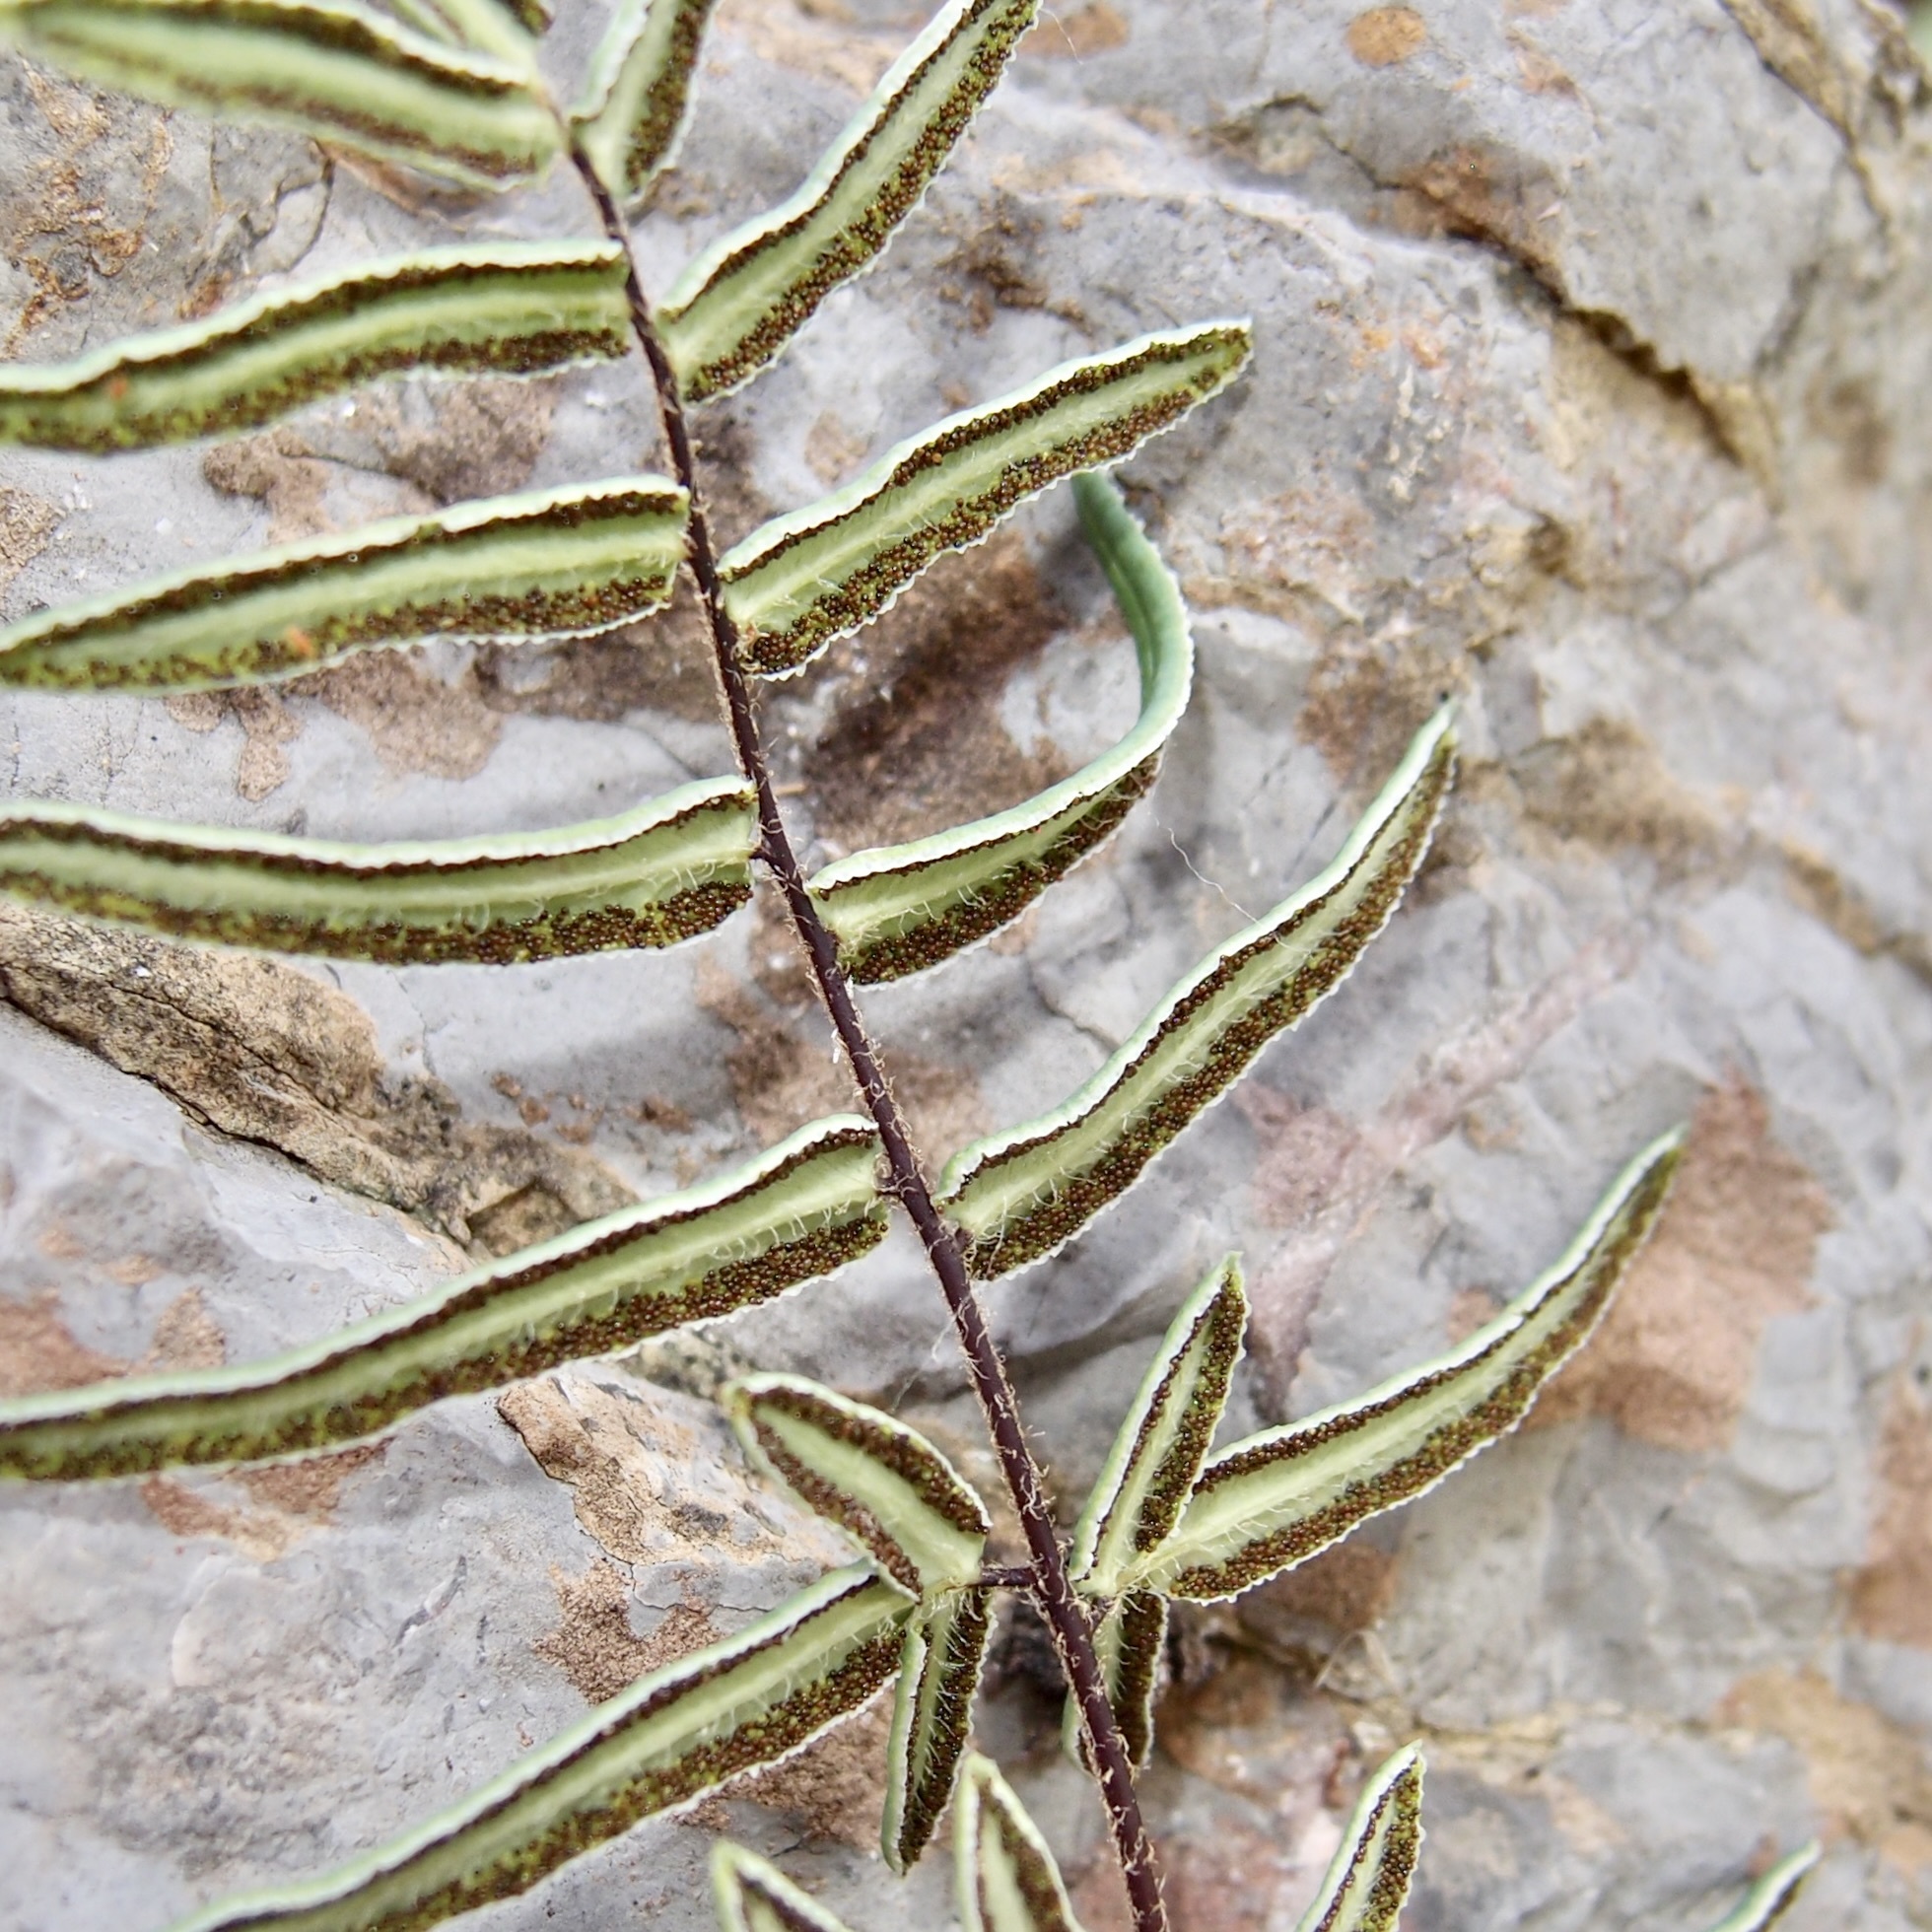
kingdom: Plantae
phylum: Tracheophyta
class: Polypodiopsida
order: Polypodiales
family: Pteridaceae
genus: Pellaea
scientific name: Pellaea atropurpurea
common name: Hairy cliffbrake
